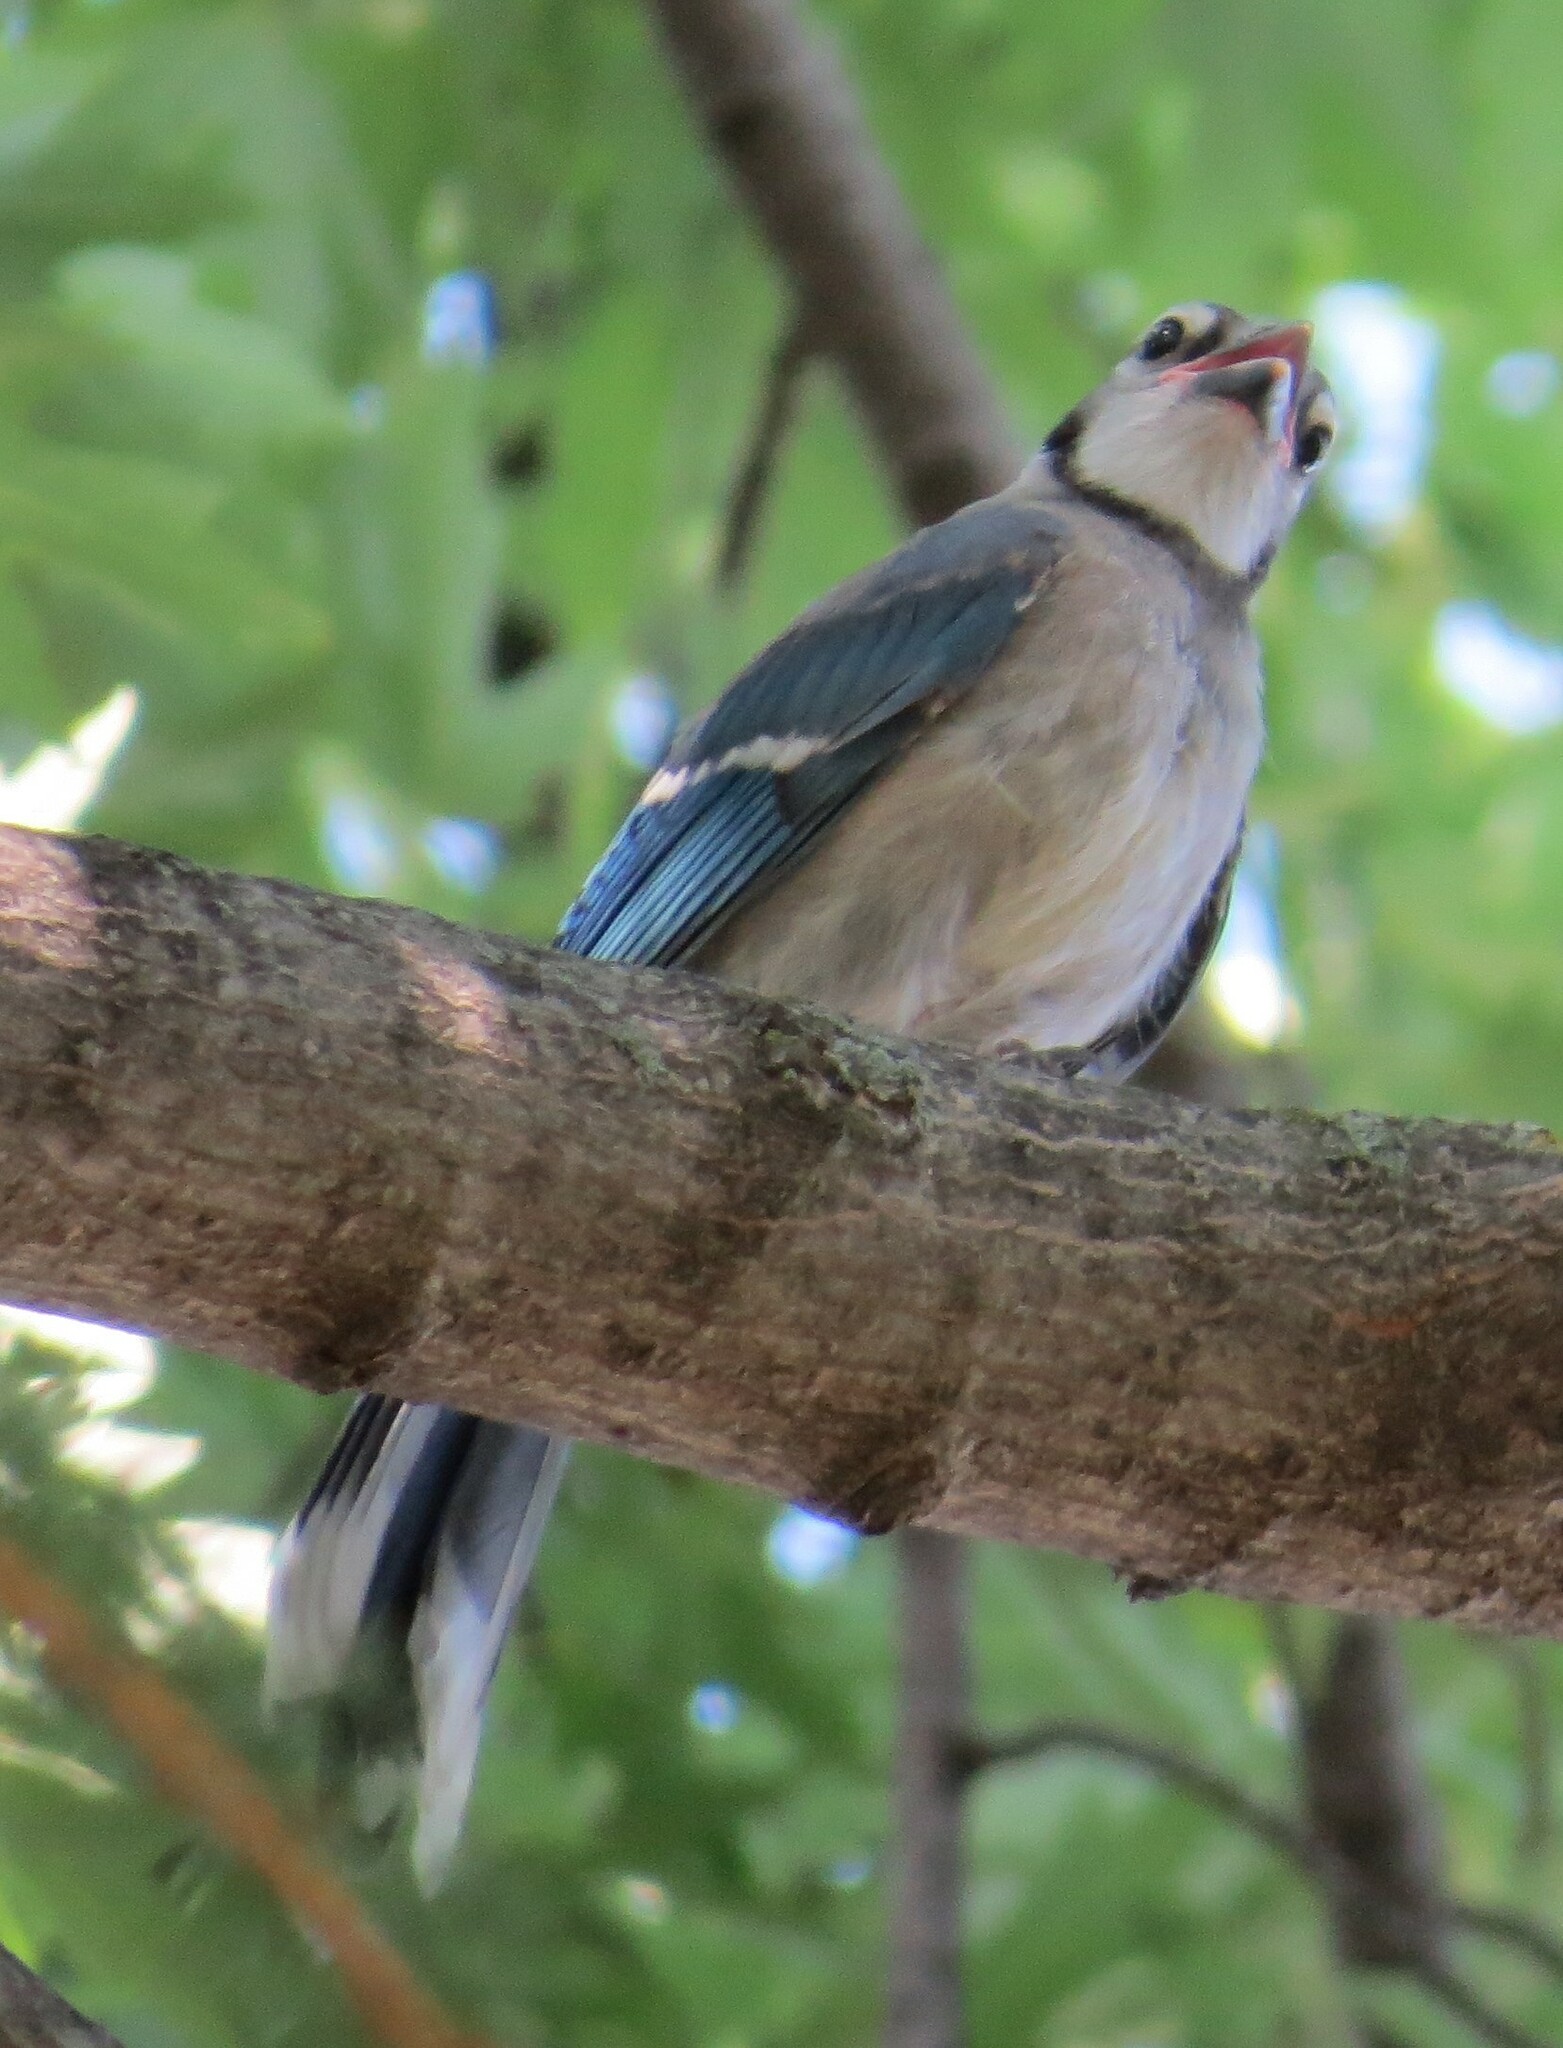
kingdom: Animalia
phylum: Chordata
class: Aves
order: Passeriformes
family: Corvidae
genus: Cyanocitta
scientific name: Cyanocitta cristata
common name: Blue jay
